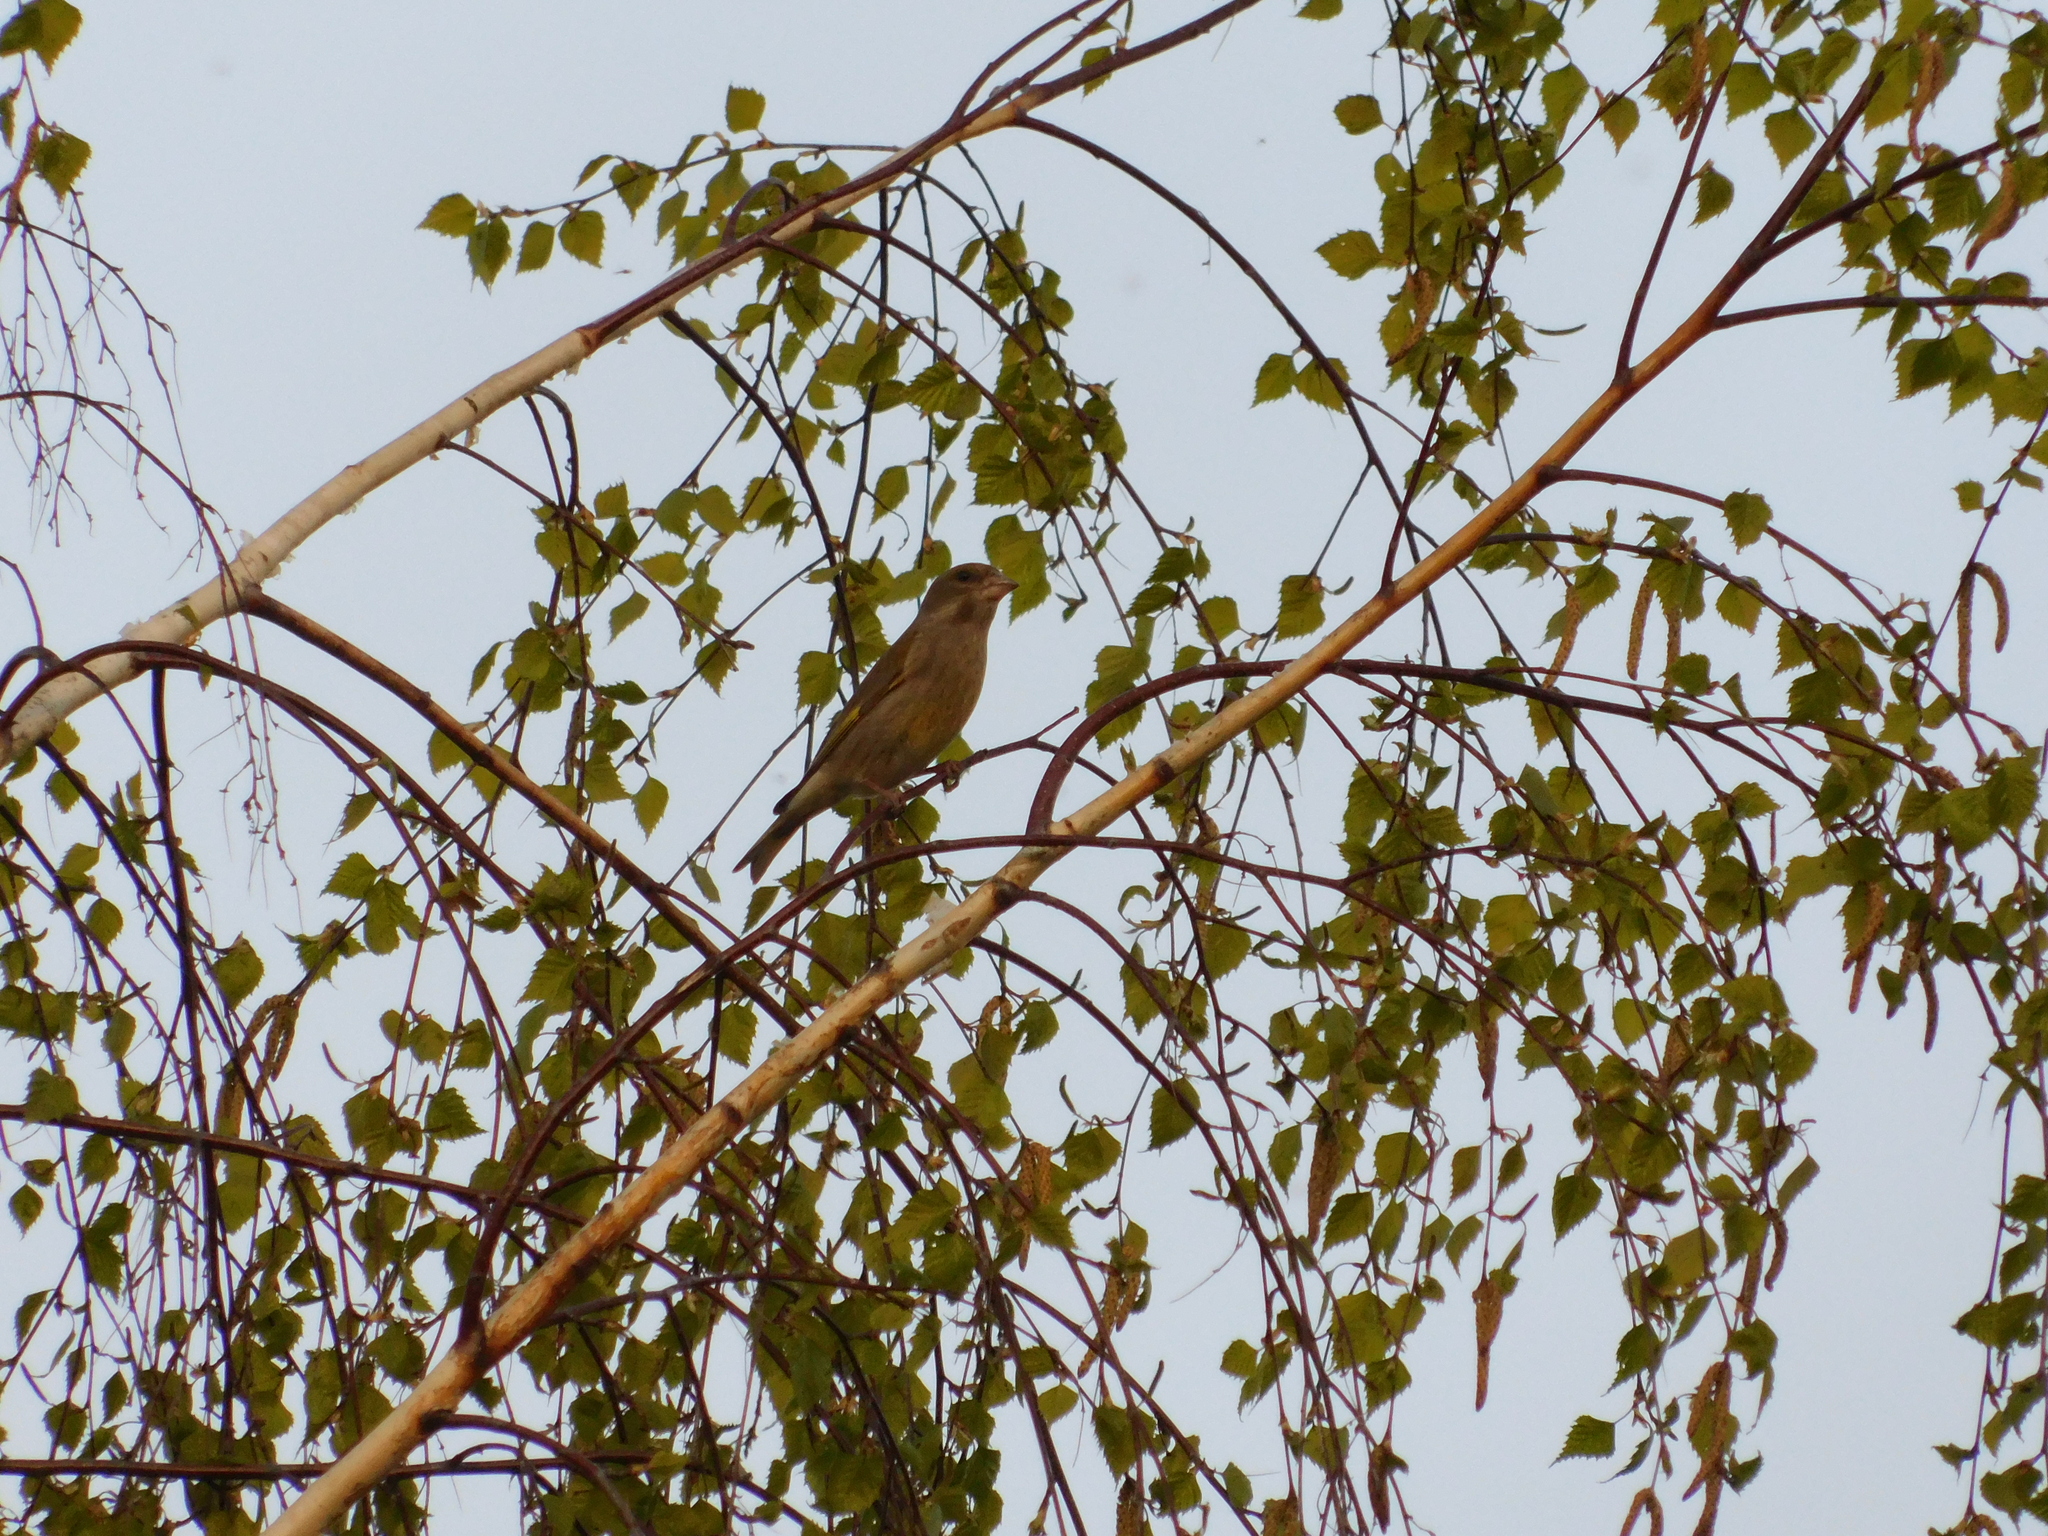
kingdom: Plantae
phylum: Tracheophyta
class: Liliopsida
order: Poales
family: Poaceae
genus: Chloris
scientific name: Chloris chloris
